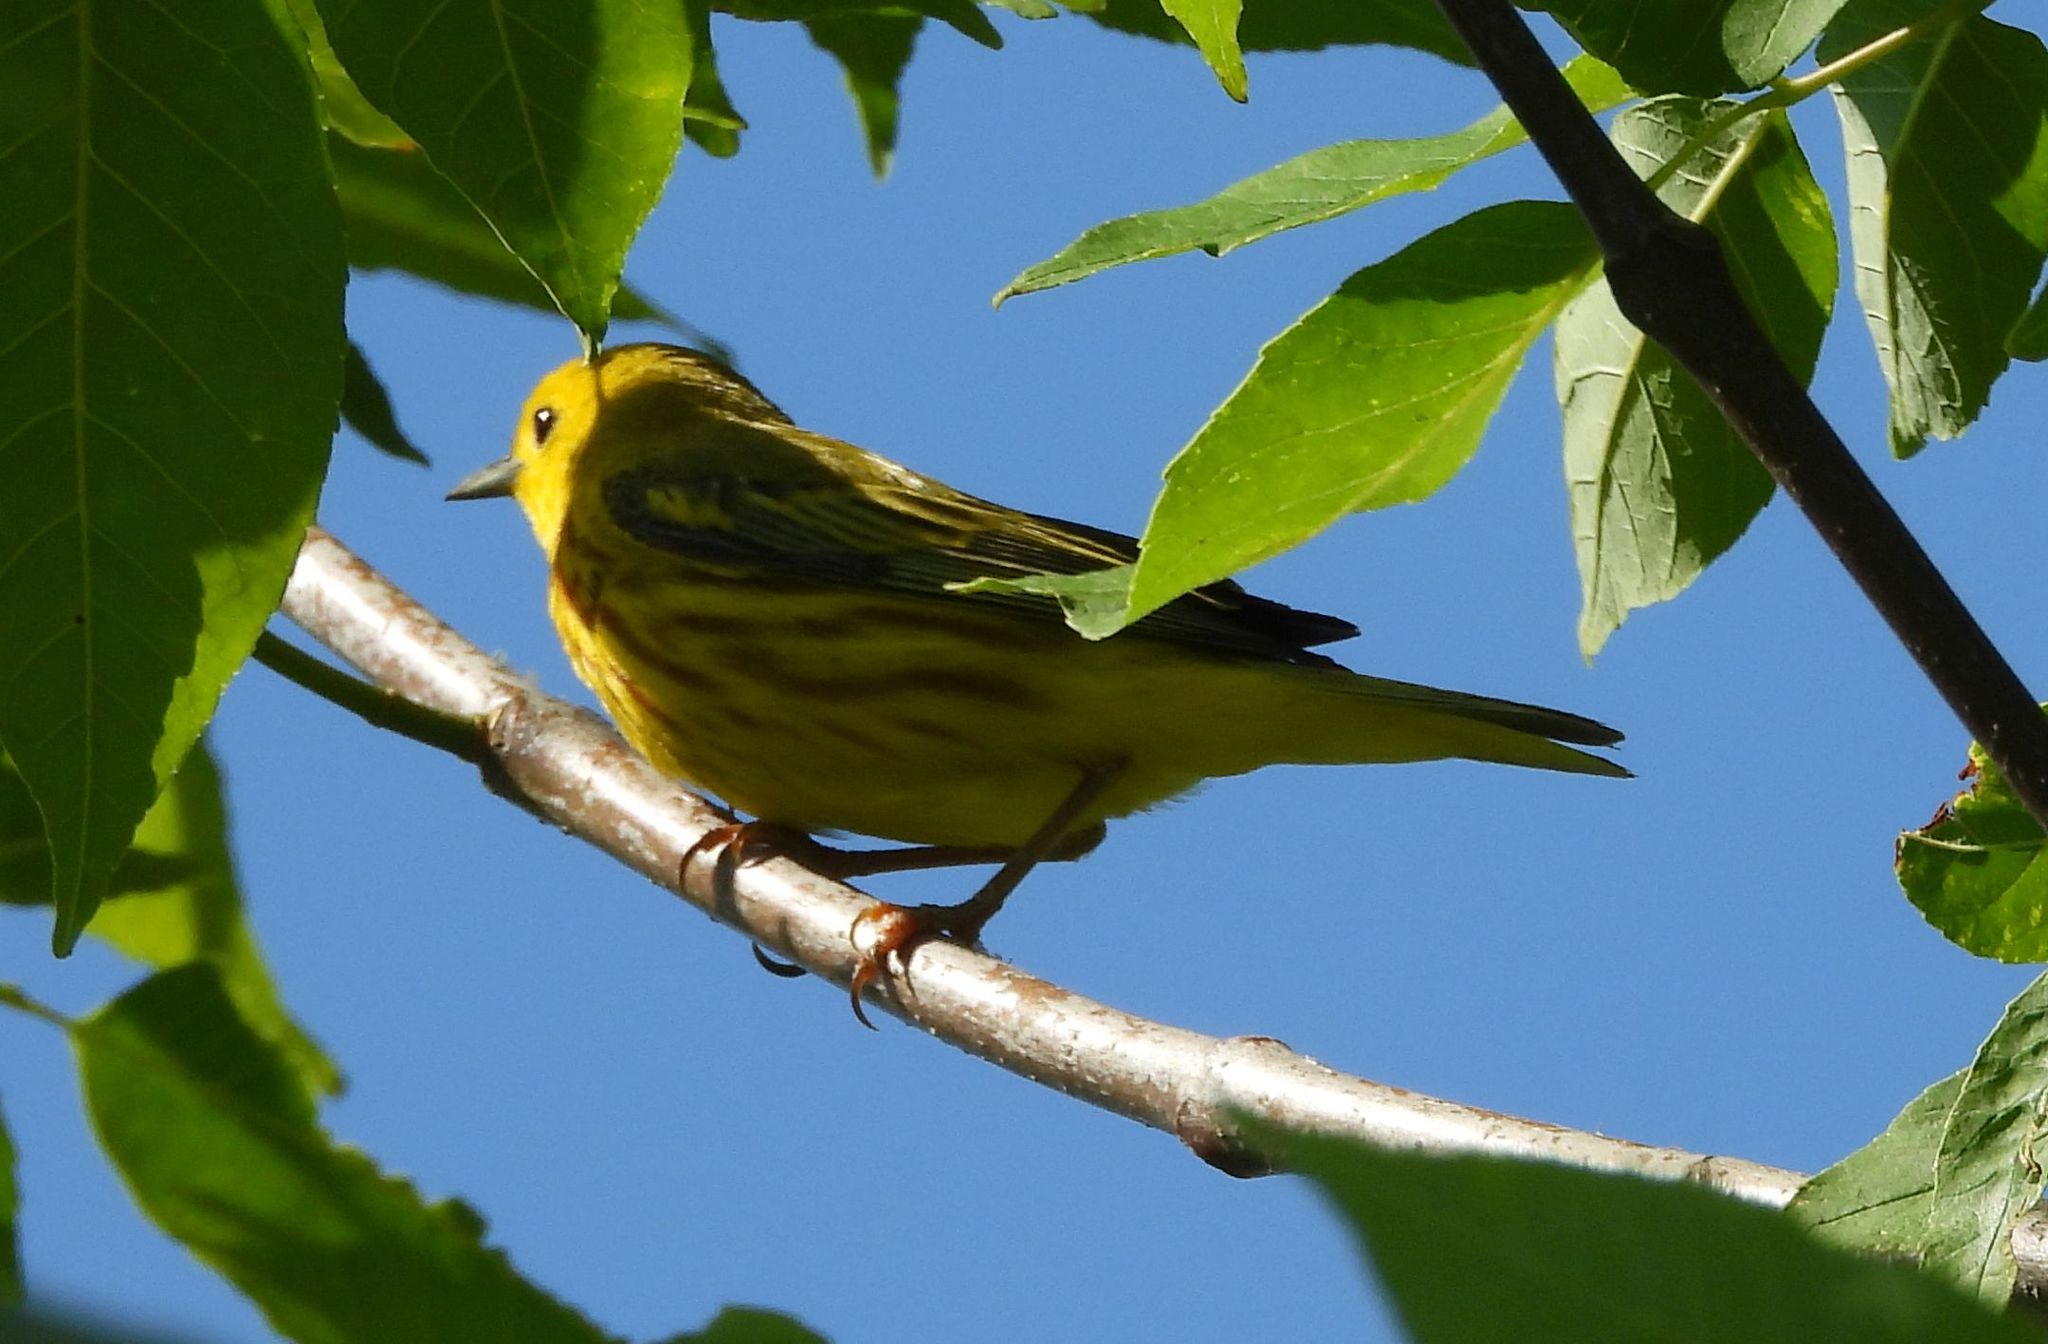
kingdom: Animalia
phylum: Chordata
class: Aves
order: Passeriformes
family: Parulidae
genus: Setophaga
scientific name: Setophaga petechia
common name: Yellow warbler
